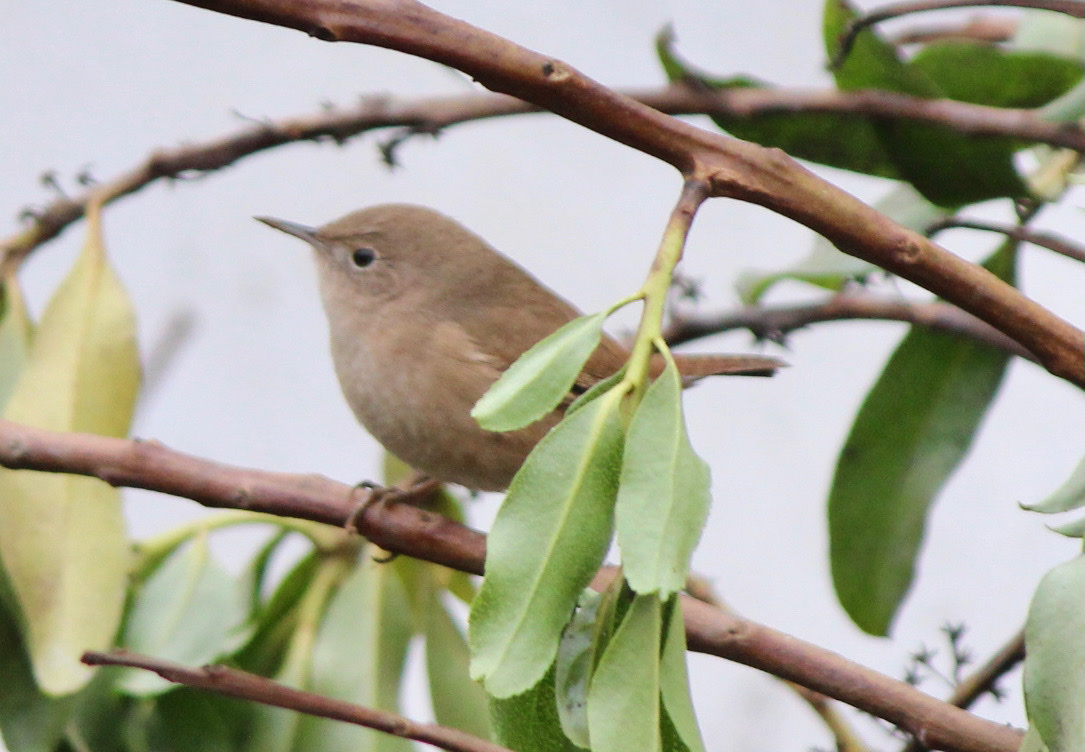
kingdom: Animalia
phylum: Chordata
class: Aves
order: Passeriformes
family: Troglodytidae
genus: Troglodytes
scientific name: Troglodytes aedon
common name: House wren
